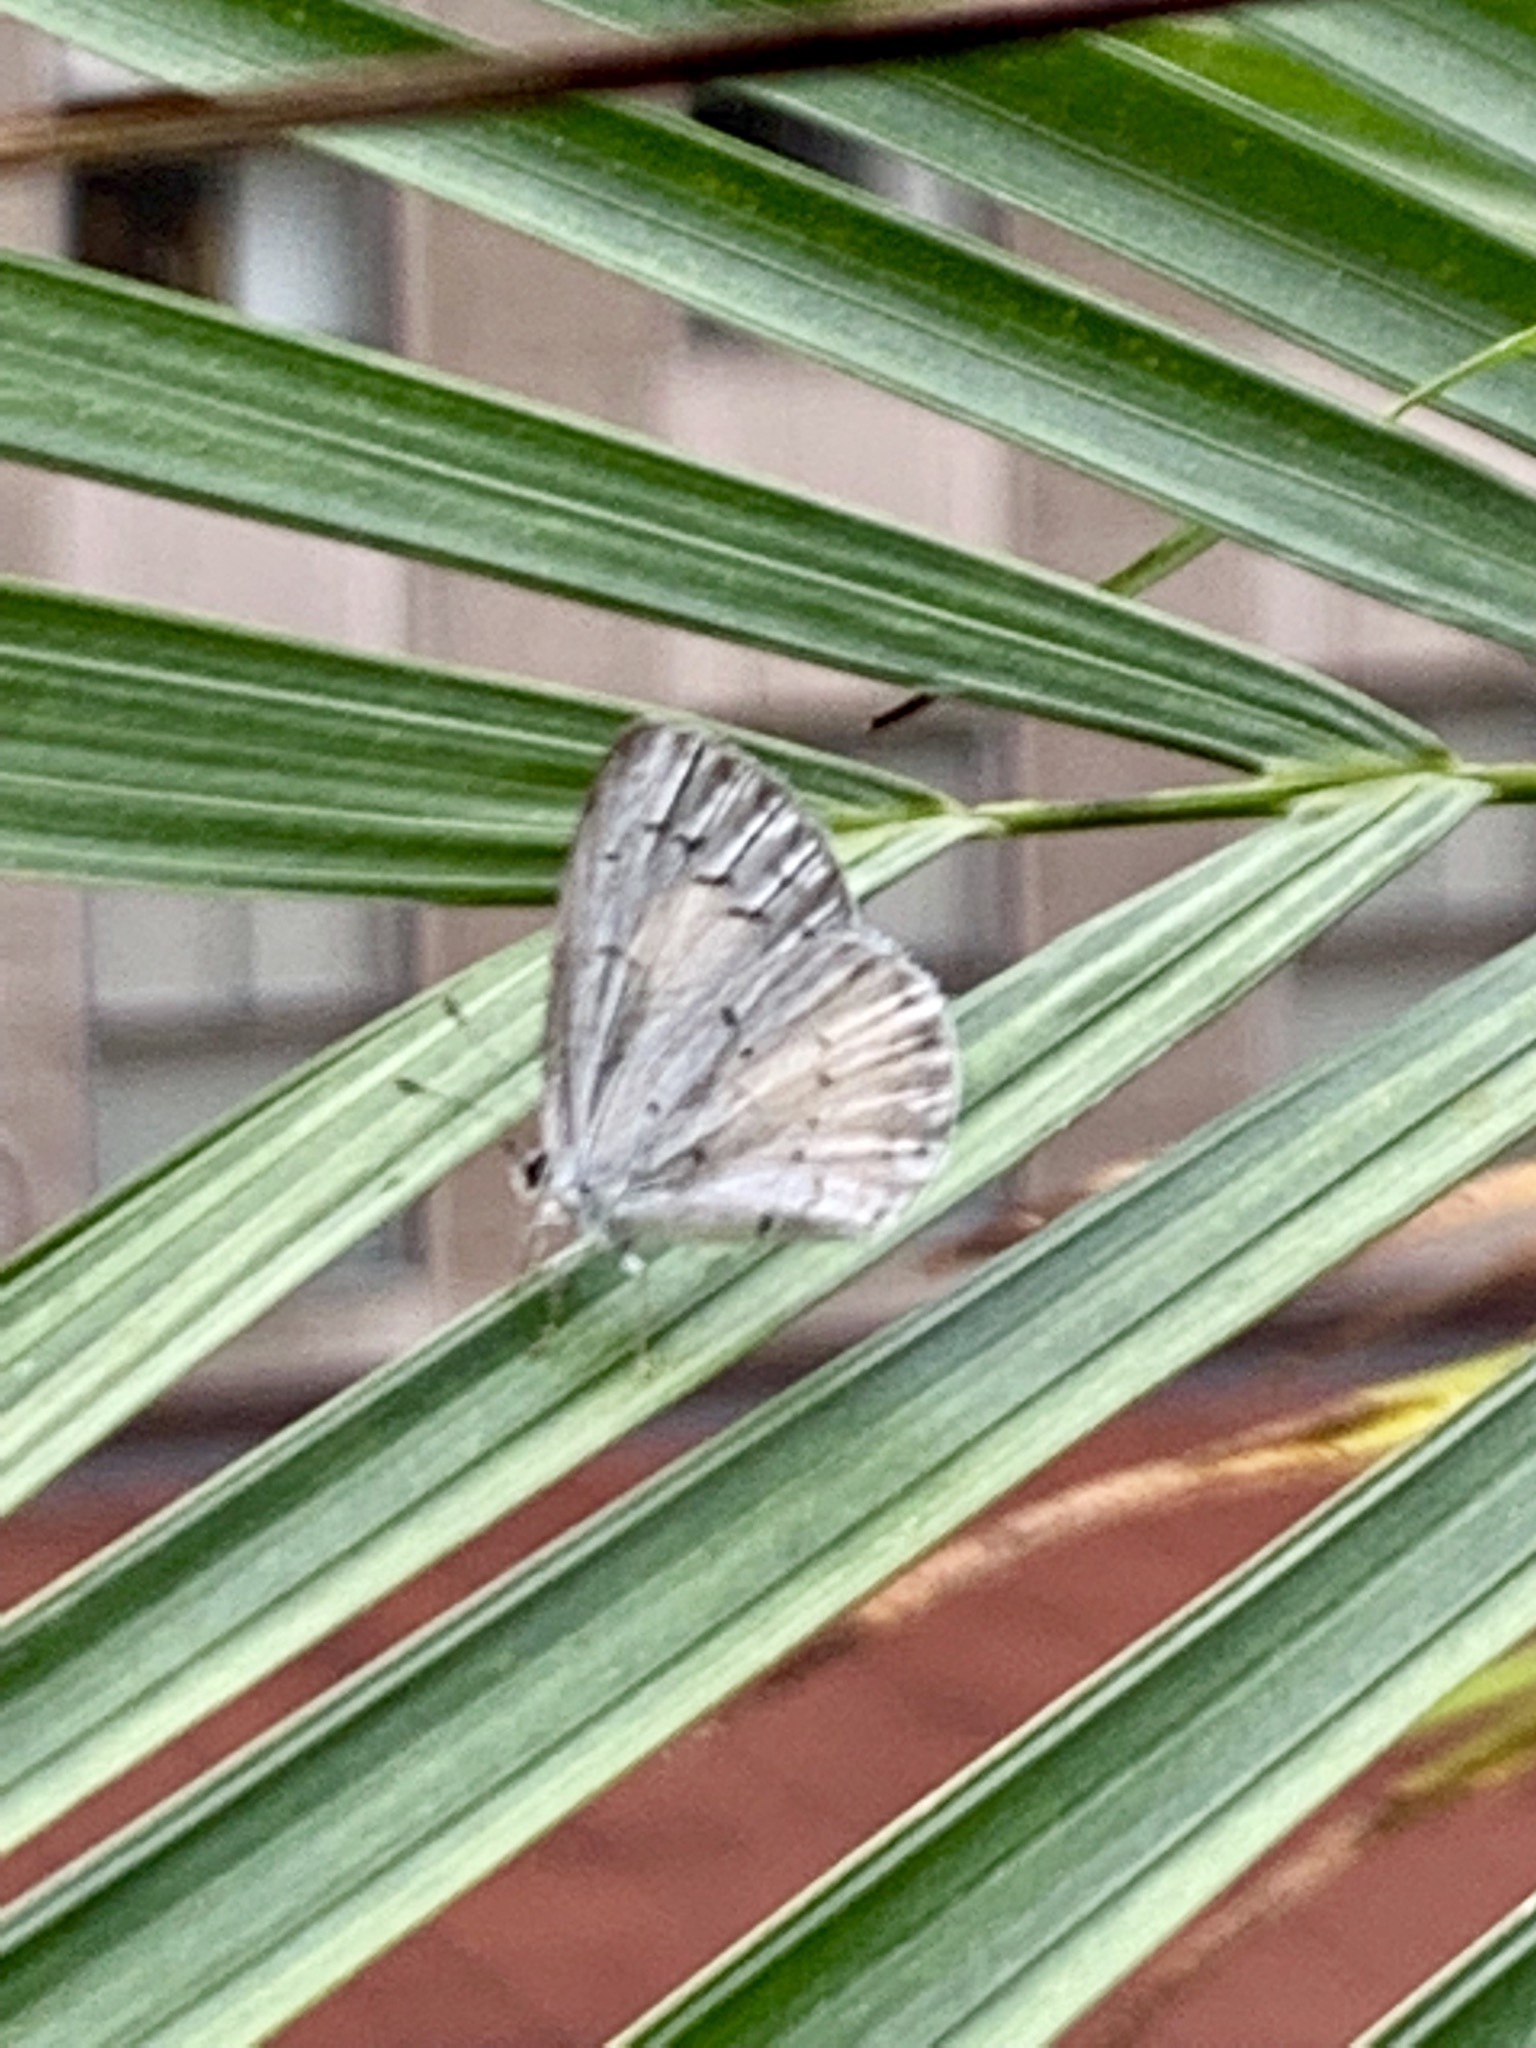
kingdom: Animalia
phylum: Arthropoda
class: Insecta
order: Lepidoptera
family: Lycaenidae
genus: Cyaniris
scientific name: Cyaniris neglecta
